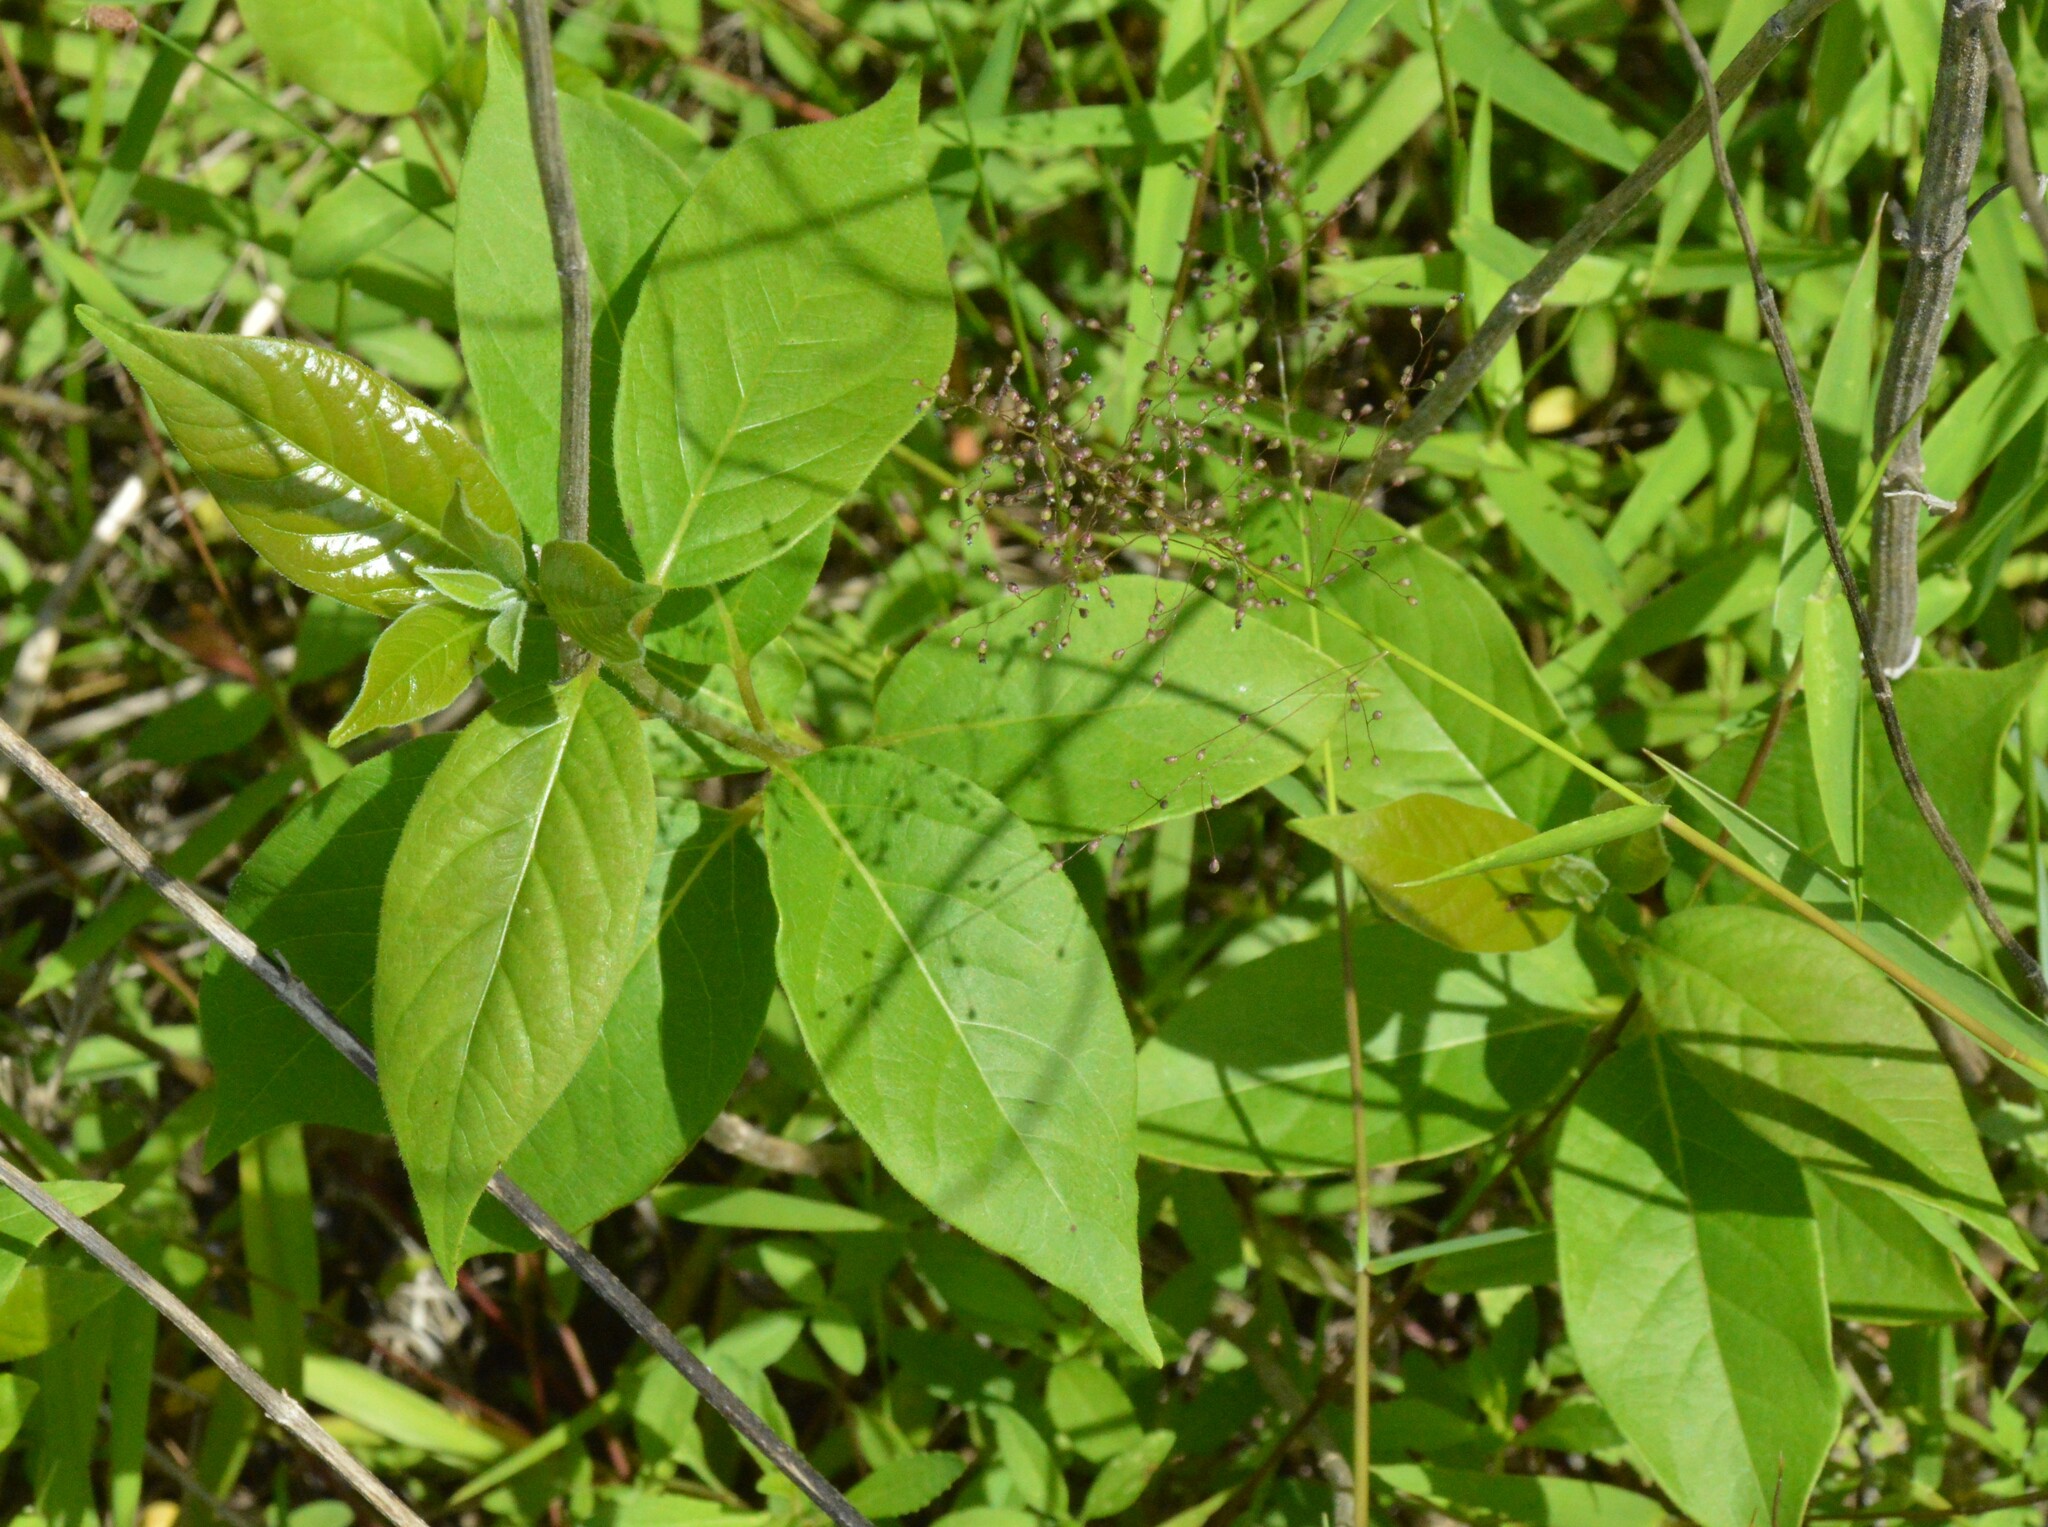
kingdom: Plantae
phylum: Tracheophyta
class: Magnoliopsida
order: Ericales
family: Ebenaceae
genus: Diospyros
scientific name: Diospyros virginiana
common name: Persimmon
